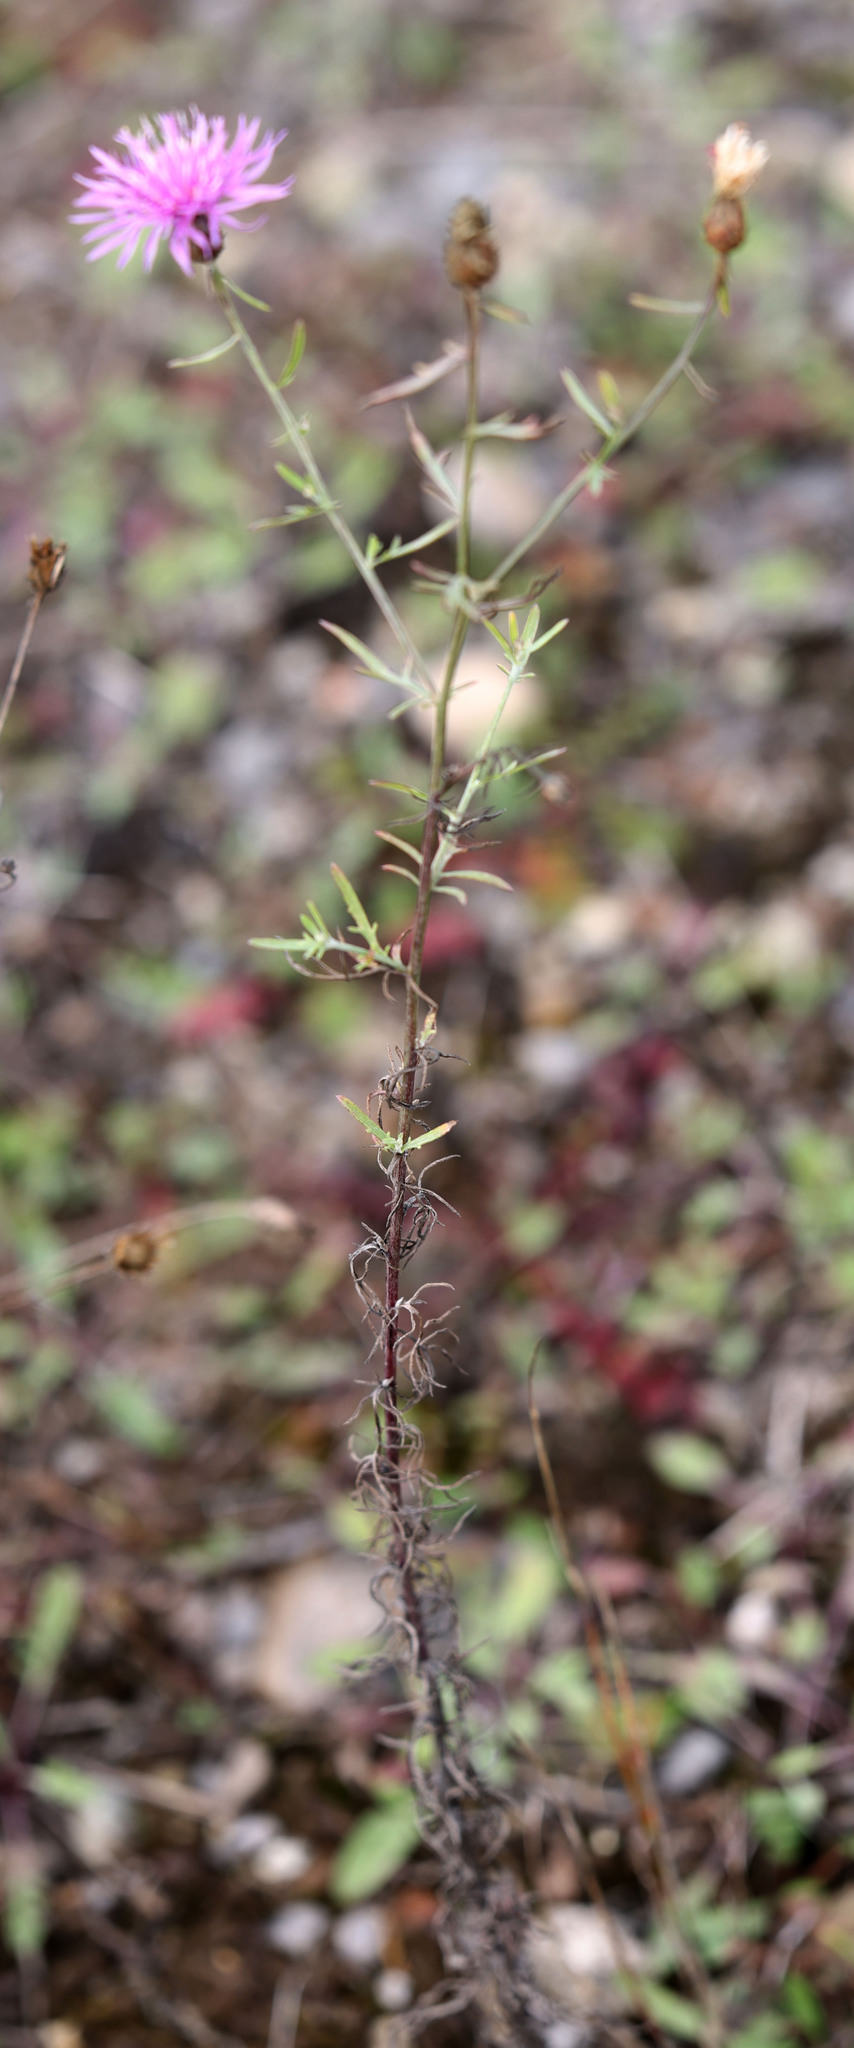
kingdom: Plantae
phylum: Tracheophyta
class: Magnoliopsida
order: Asterales
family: Asteraceae
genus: Centaurea
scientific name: Centaurea stoebe
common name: Spotted knapweed
